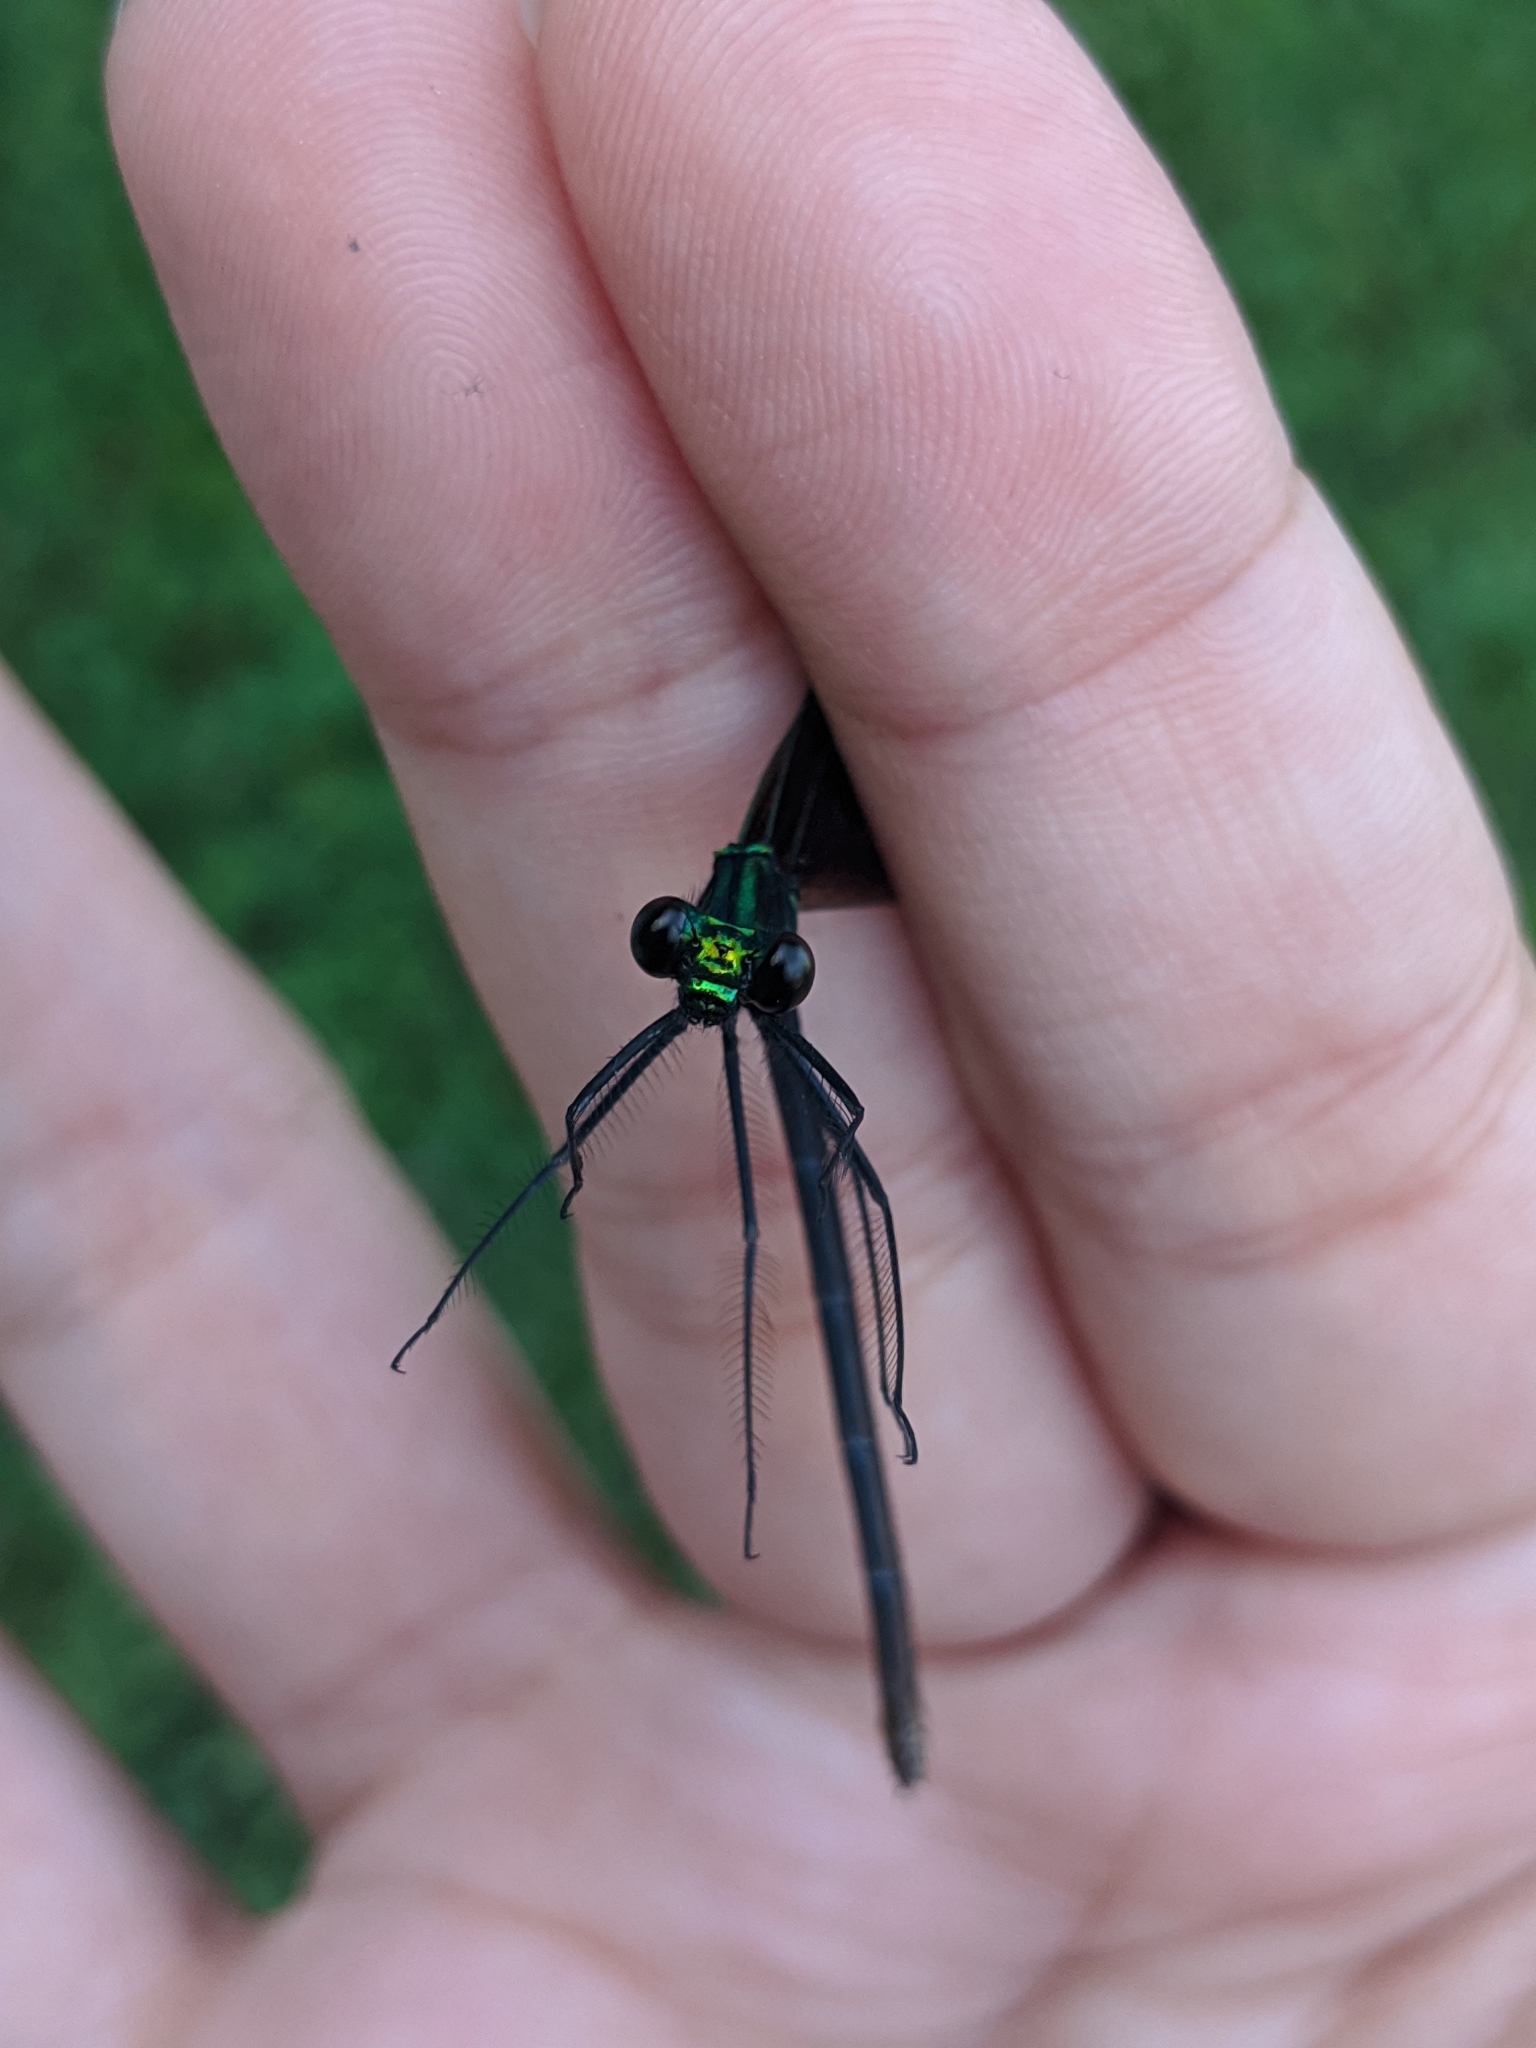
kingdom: Animalia
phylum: Arthropoda
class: Insecta
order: Odonata
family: Calopterygidae
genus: Calopteryx
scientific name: Calopteryx maculata
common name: Ebony jewelwing
